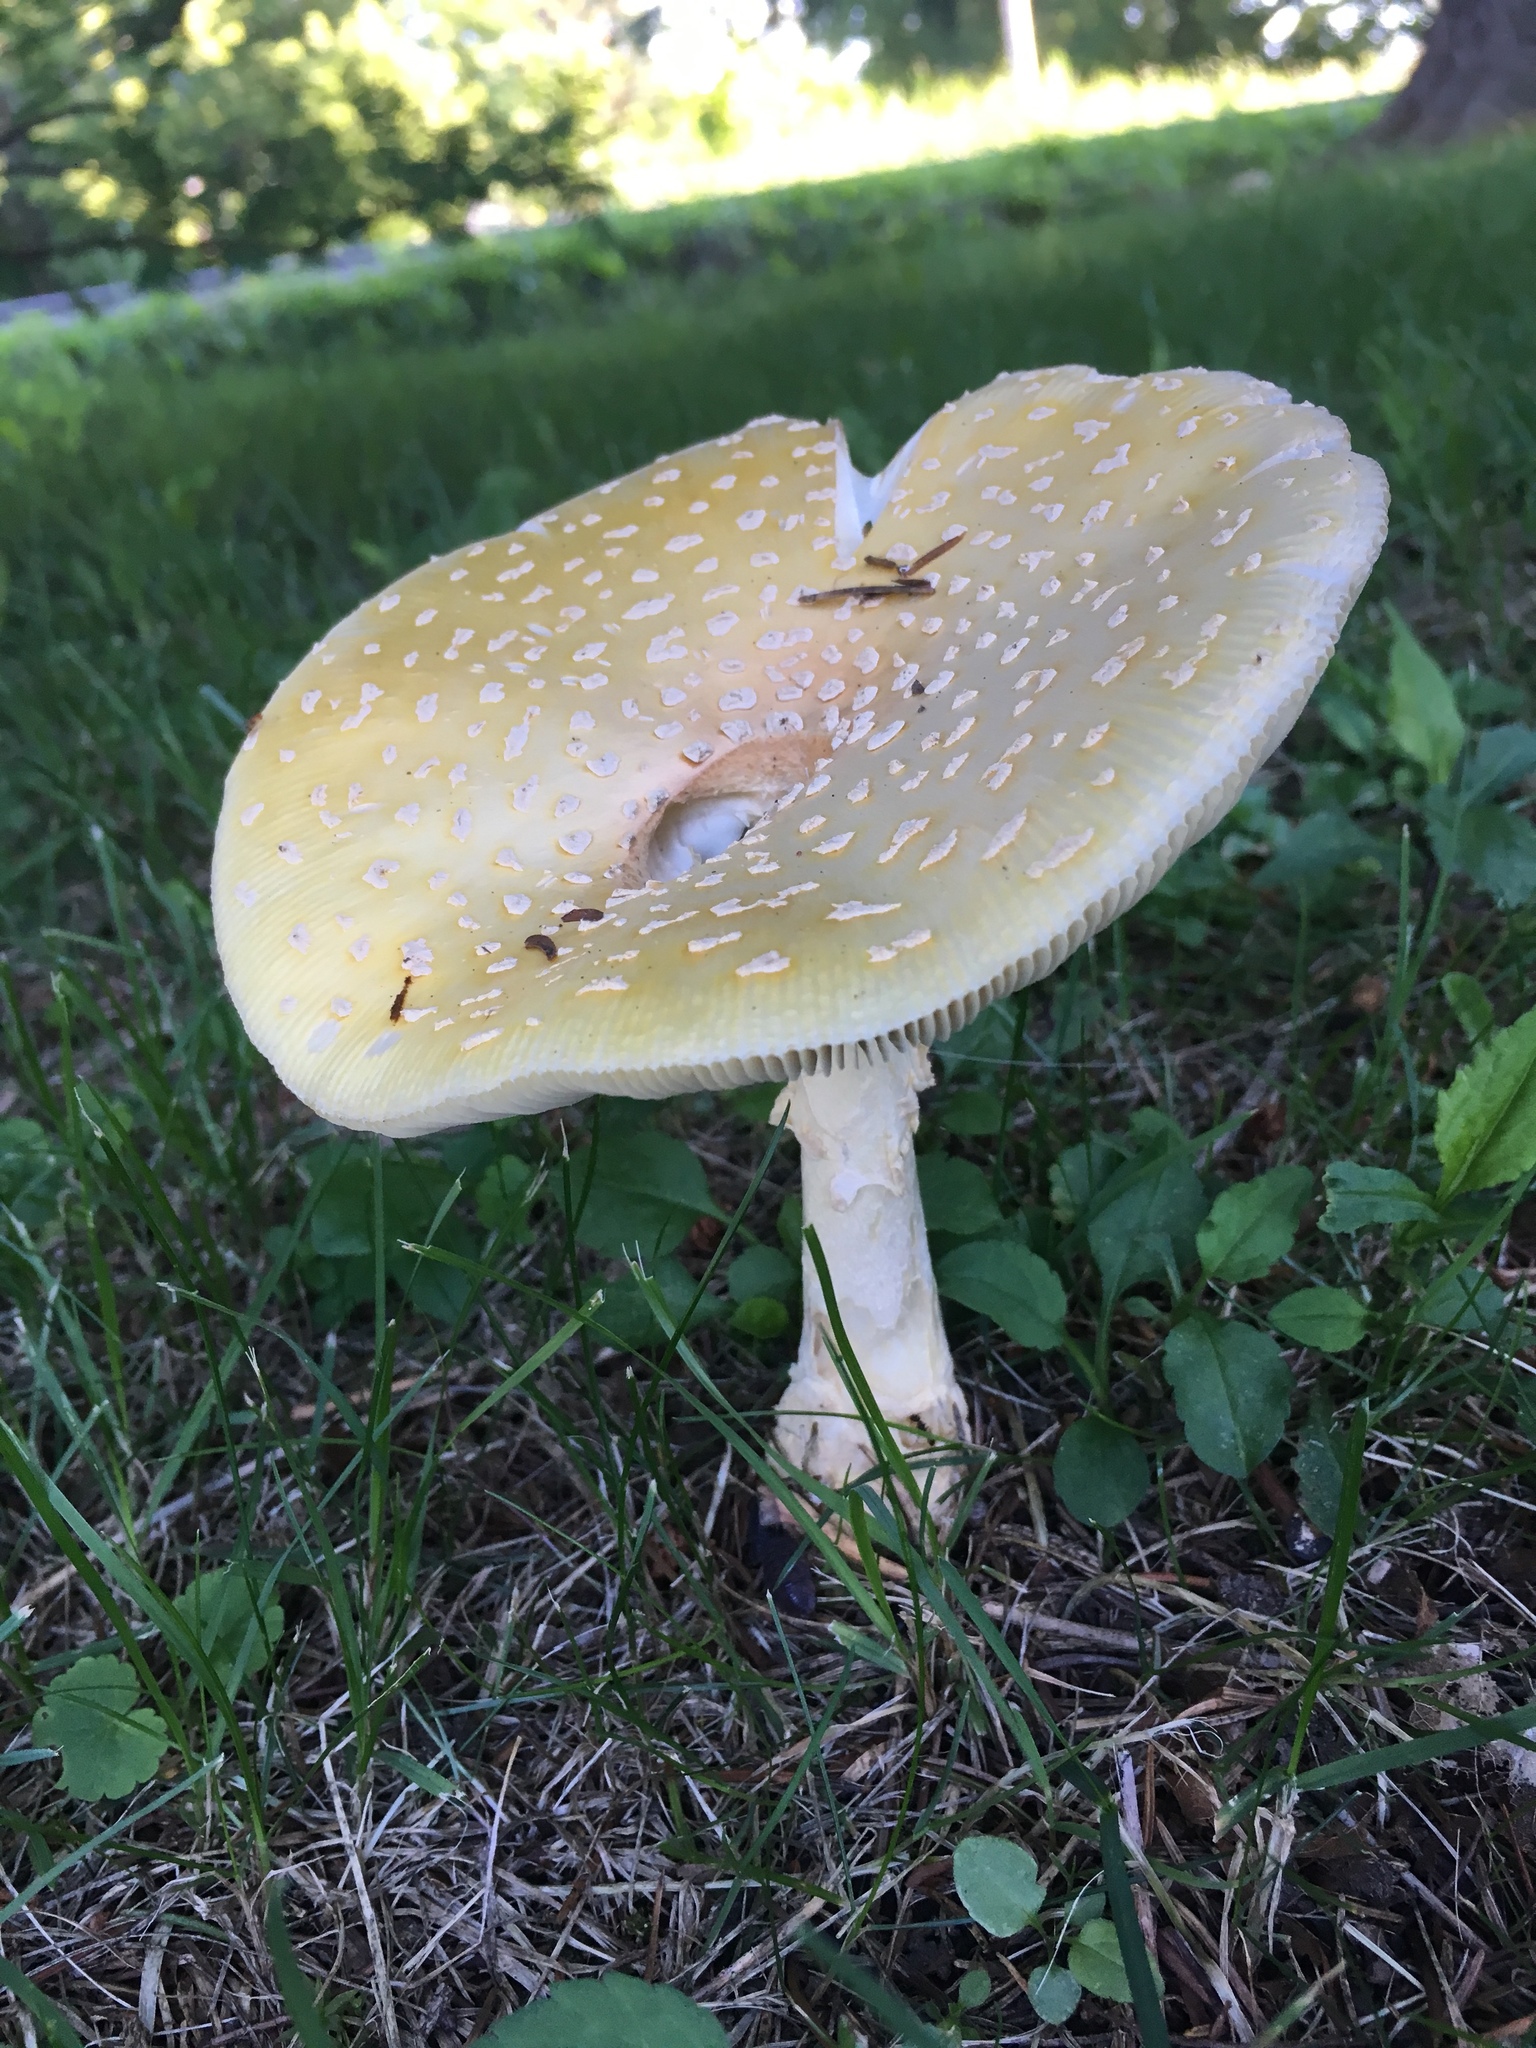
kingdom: Fungi
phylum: Basidiomycota
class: Agaricomycetes
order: Agaricales
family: Amanitaceae
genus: Amanita
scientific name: Amanita muscaria
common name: Fly agaric
